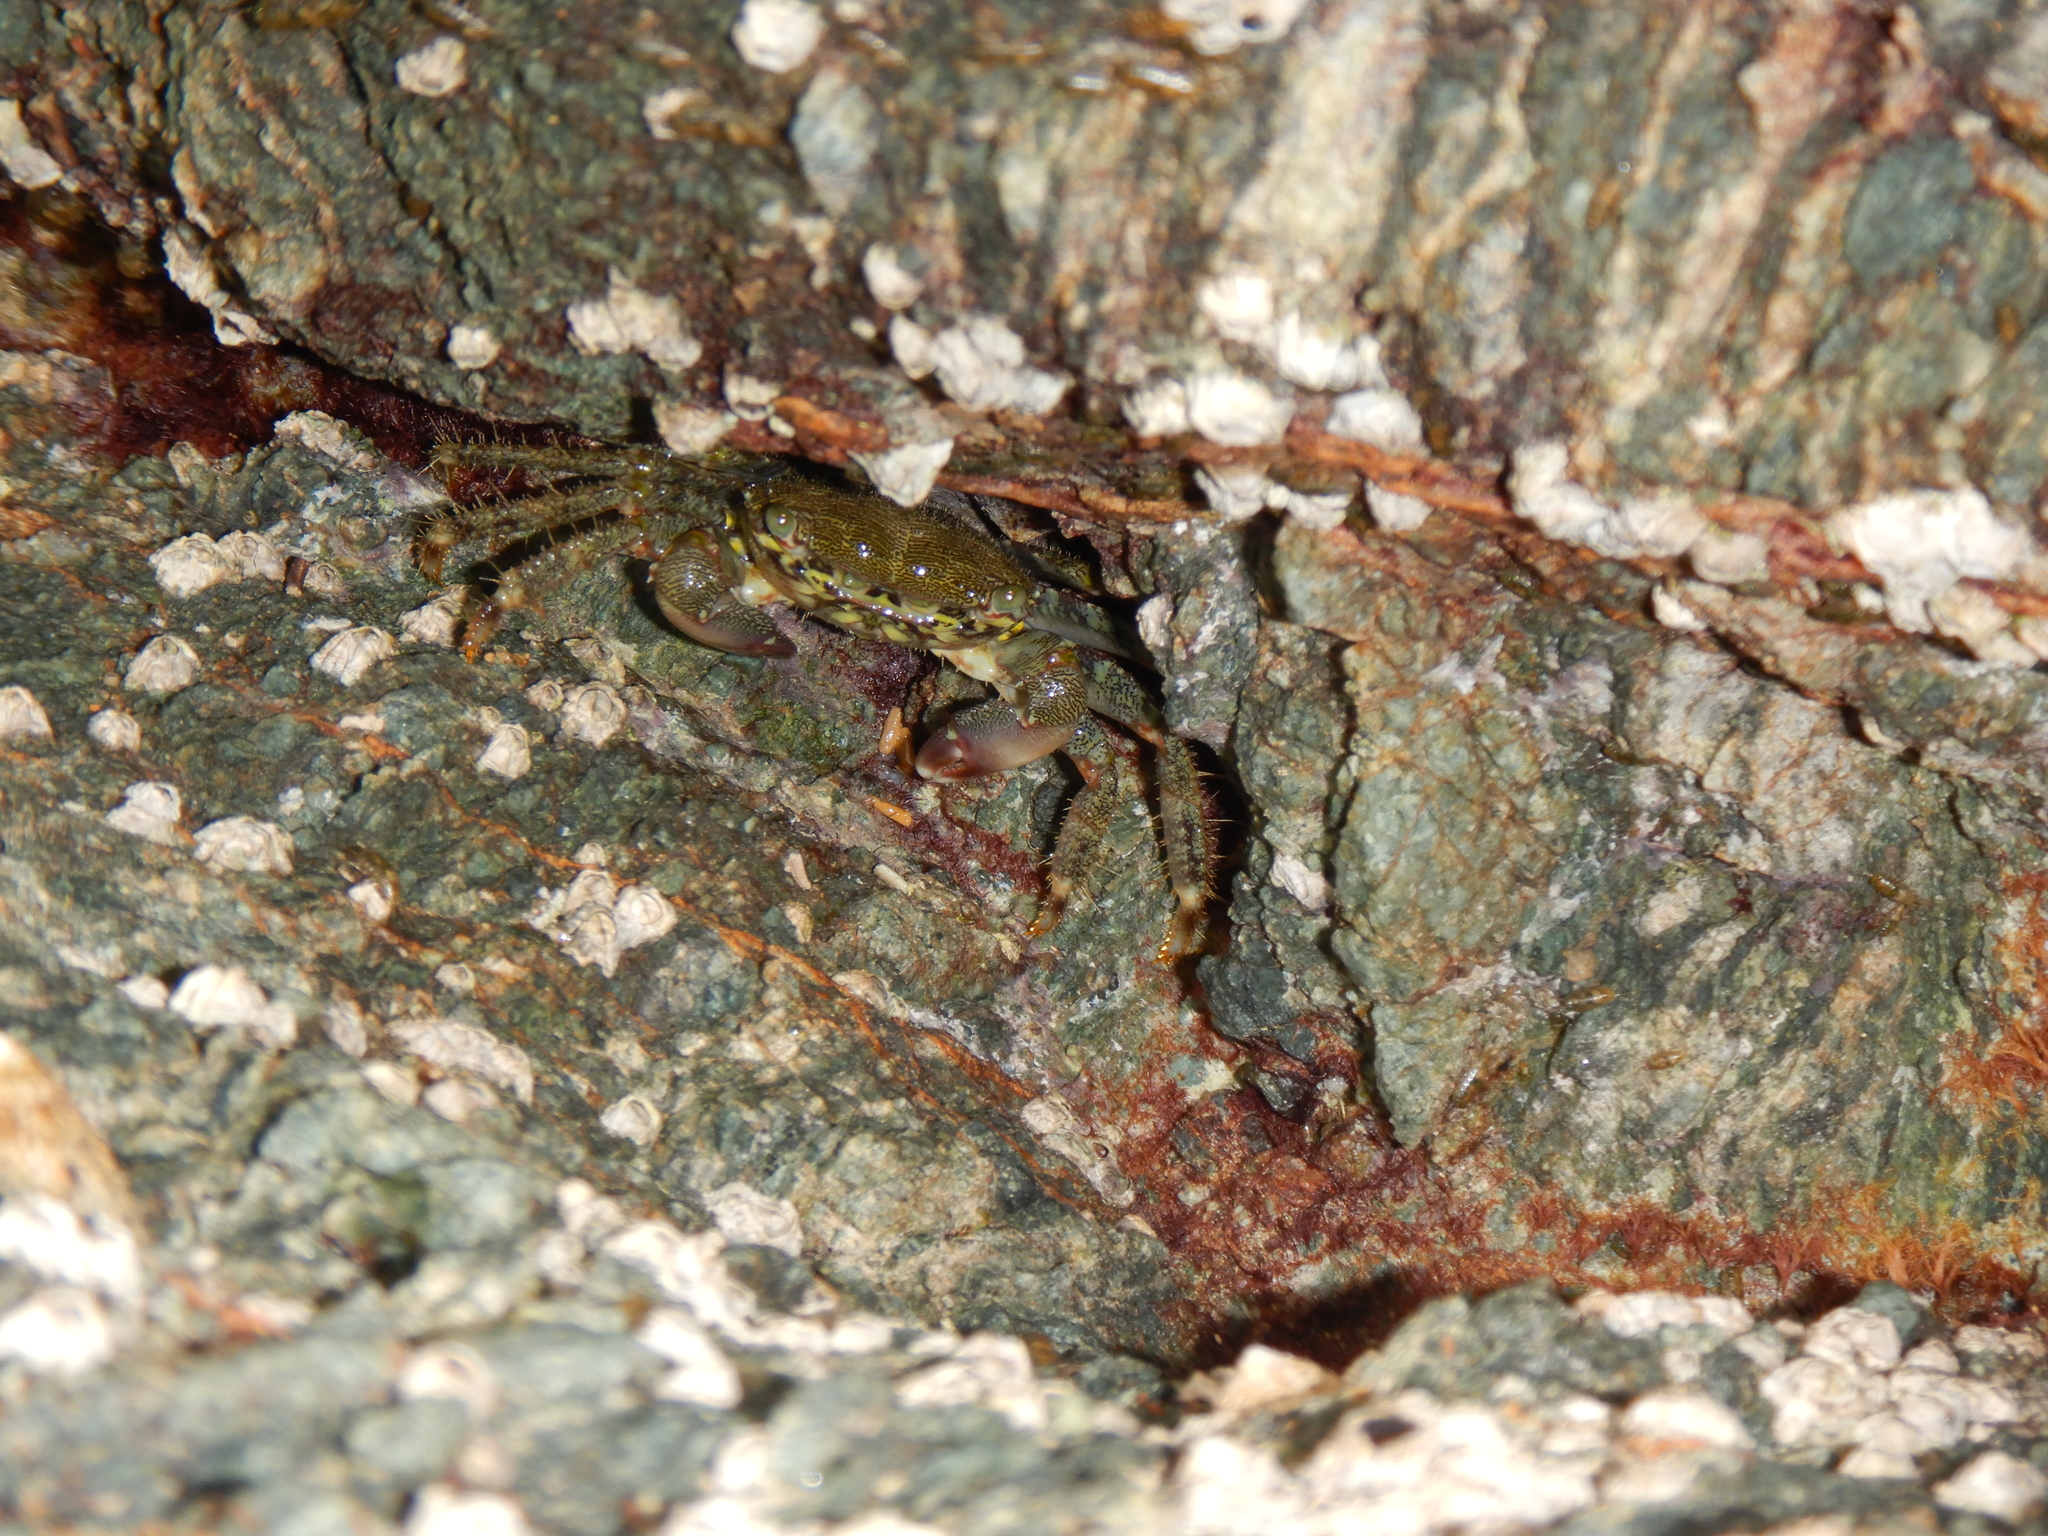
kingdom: Animalia
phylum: Arthropoda
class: Malacostraca
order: Decapoda
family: Grapsidae
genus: Pachygrapsus
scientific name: Pachygrapsus marmoratus
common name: Marbled rock crab
